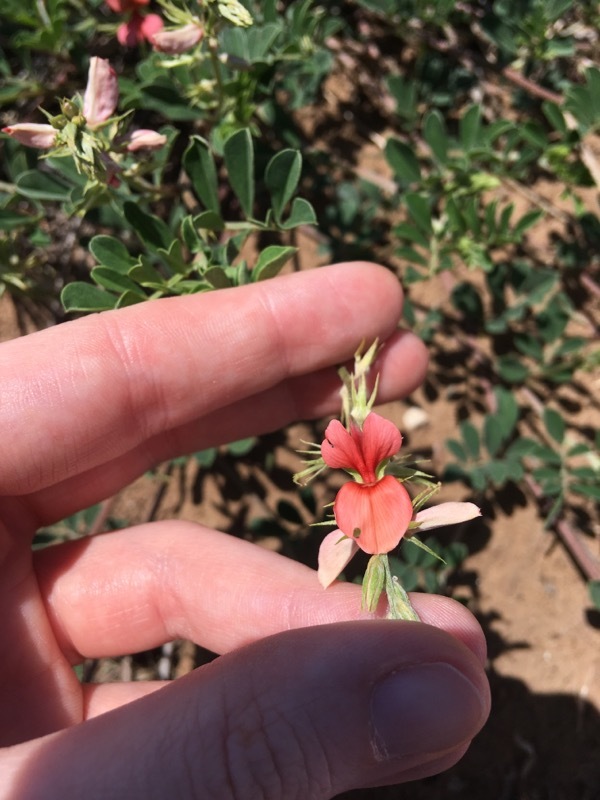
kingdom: Plantae
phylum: Tracheophyta
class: Magnoliopsida
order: Fabales
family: Fabaceae
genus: Indigofera
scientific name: Indigofera miniata
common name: Coast indigo
